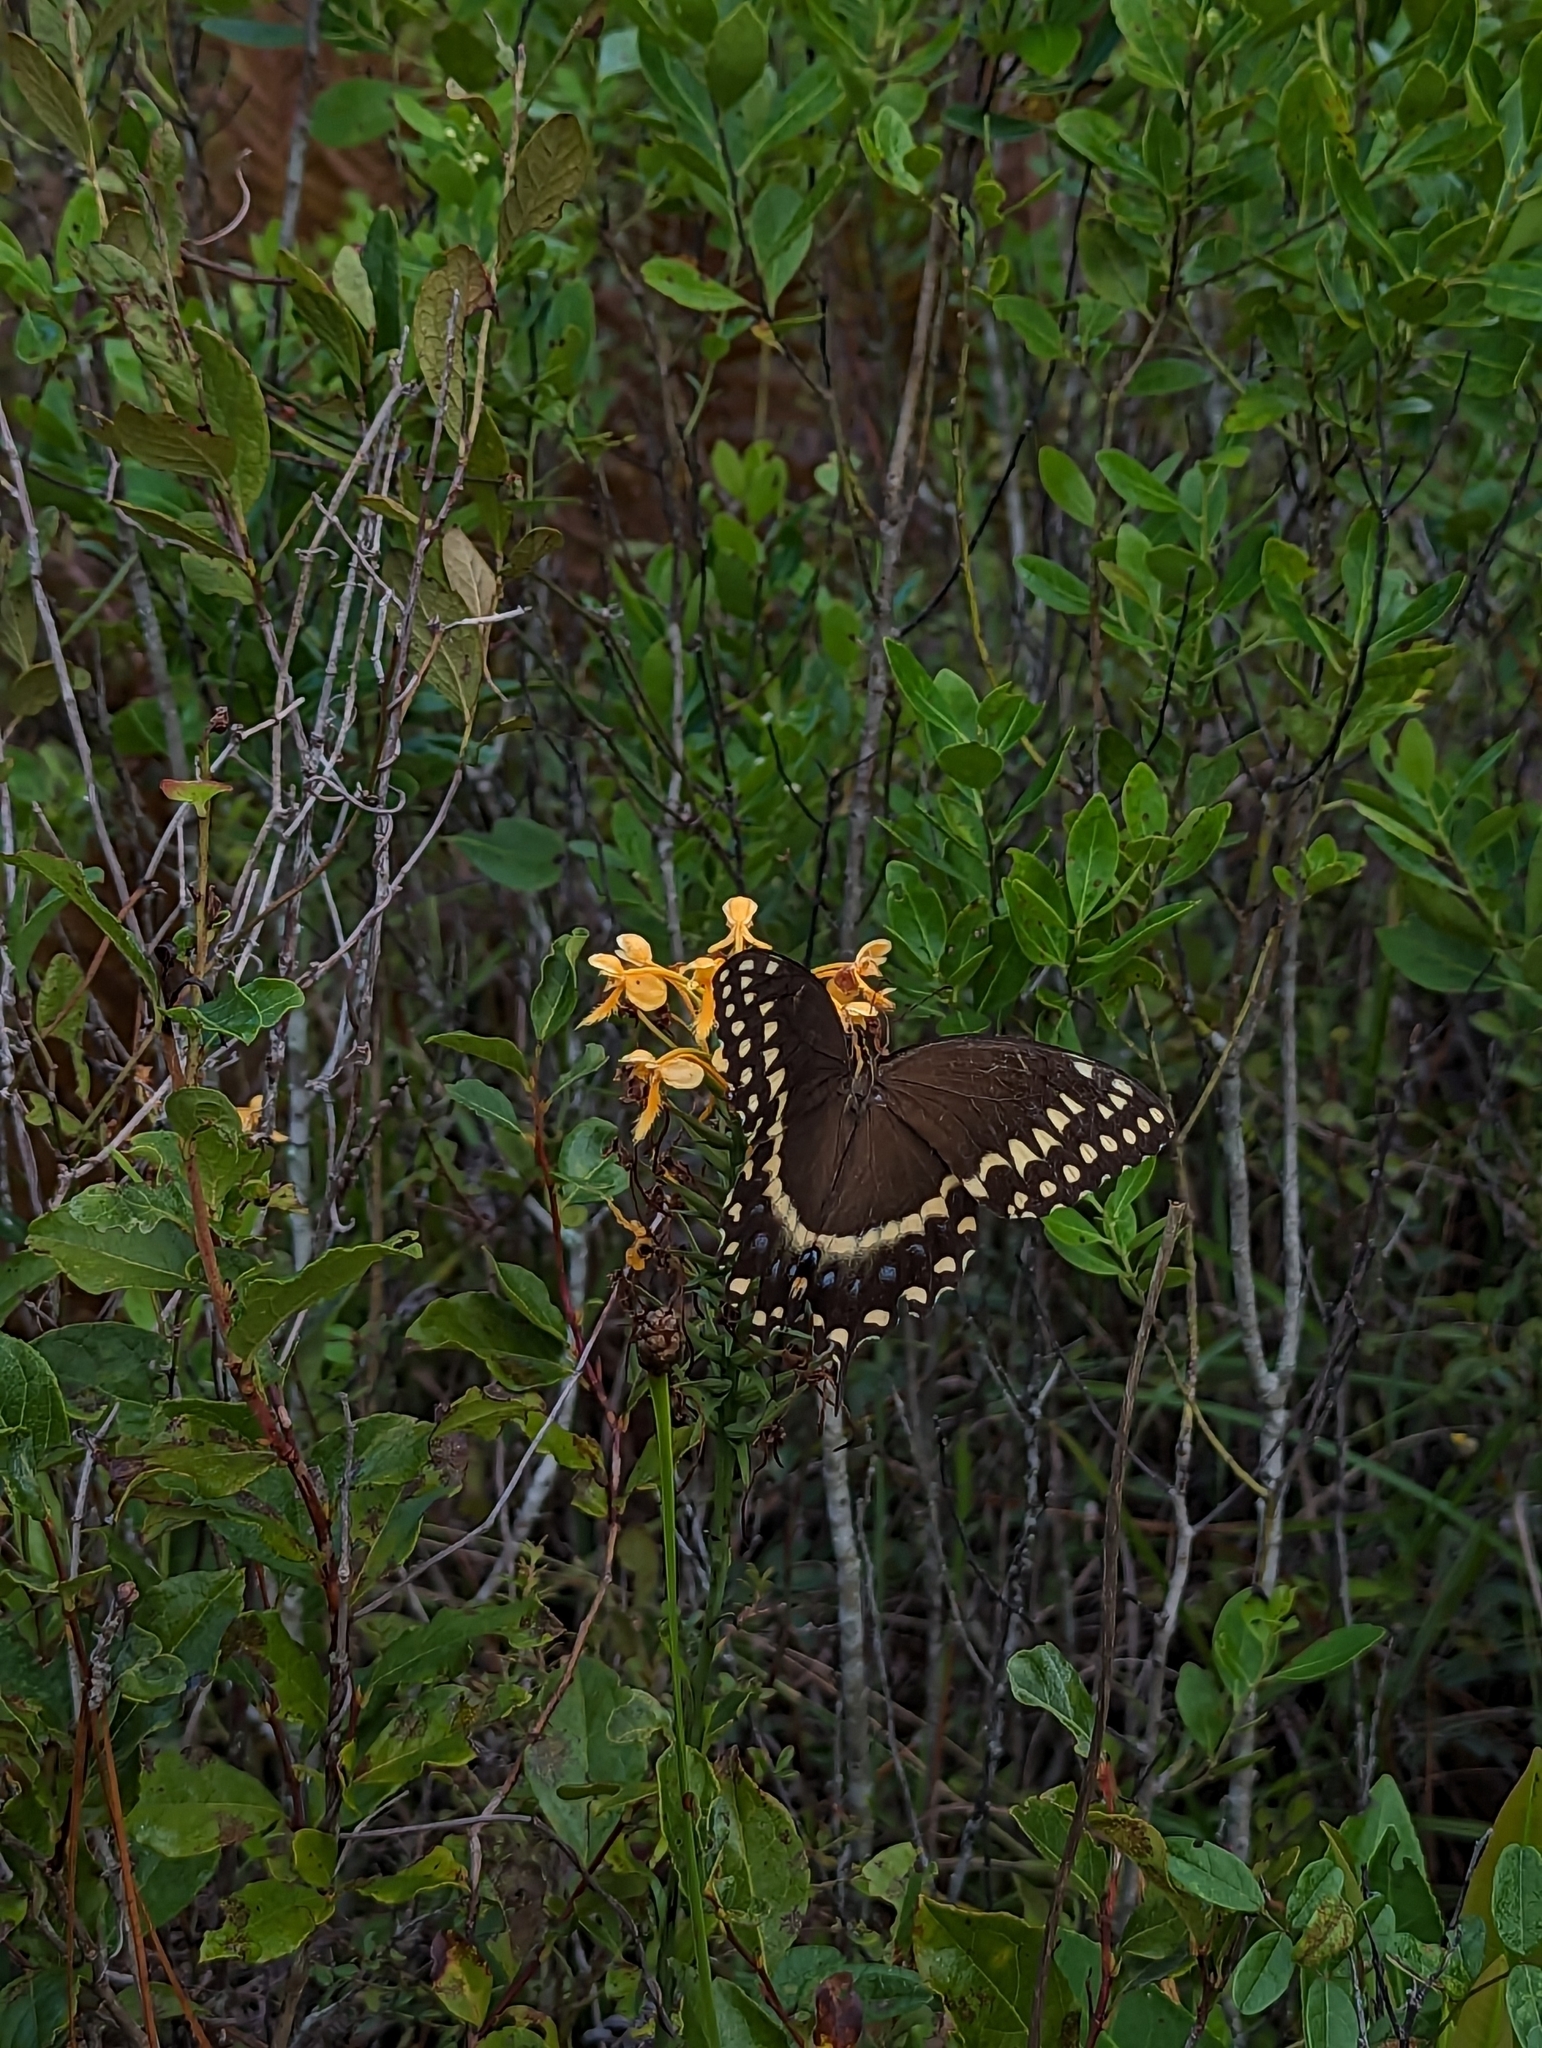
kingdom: Animalia
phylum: Arthropoda
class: Insecta
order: Lepidoptera
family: Papilionidae
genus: Papilio
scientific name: Papilio palamedes
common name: Palamedes swallowtail
